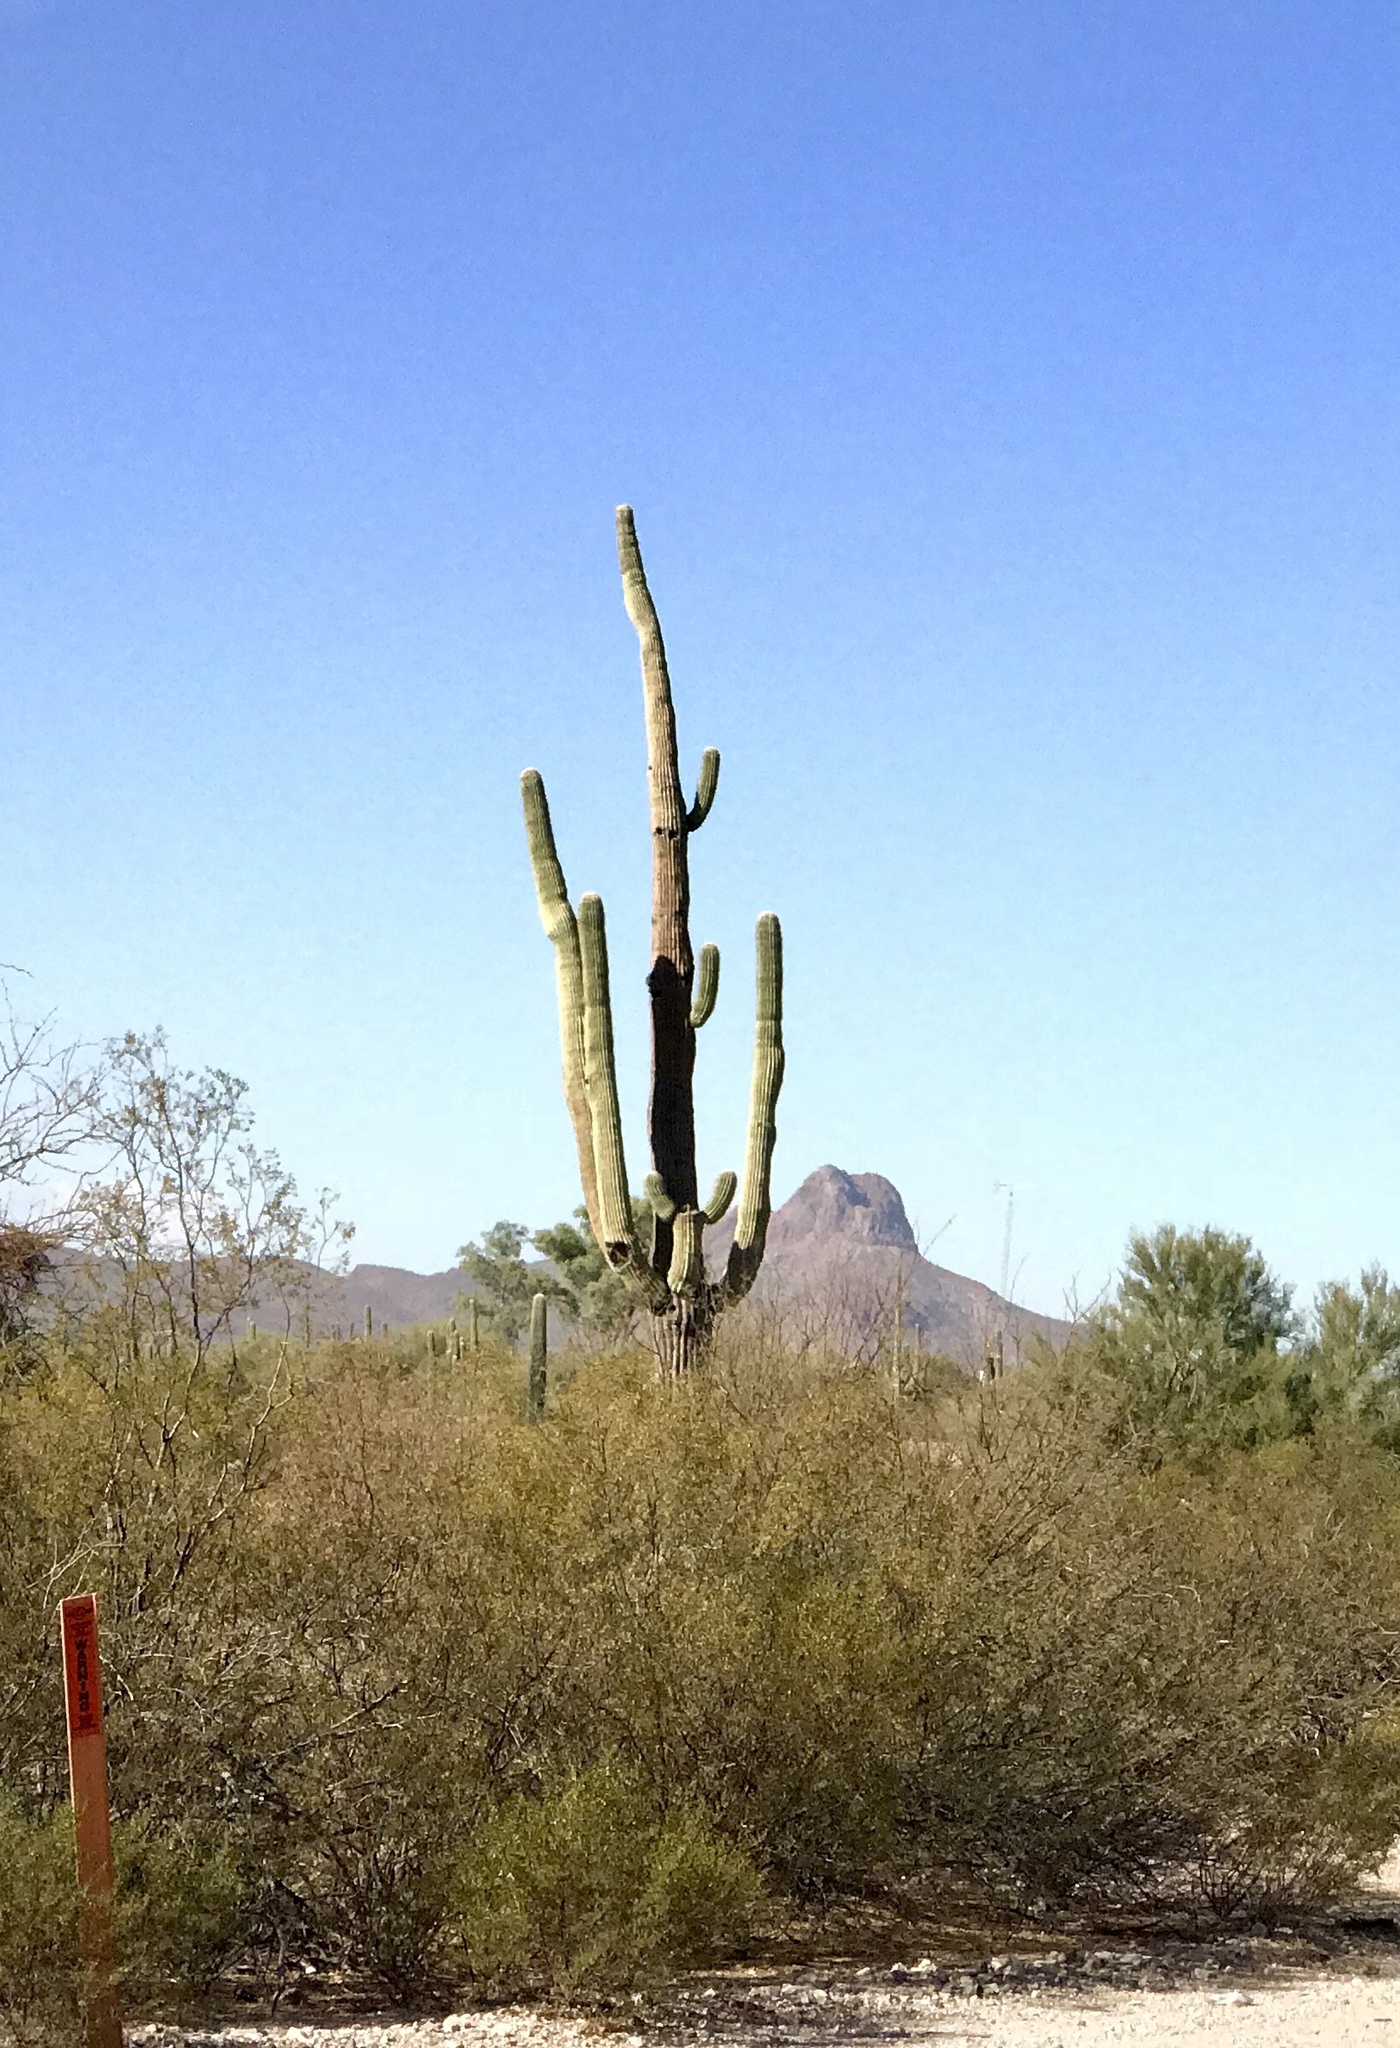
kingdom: Plantae
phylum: Tracheophyta
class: Magnoliopsida
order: Caryophyllales
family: Cactaceae
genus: Carnegiea
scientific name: Carnegiea gigantea
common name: Saguaro
